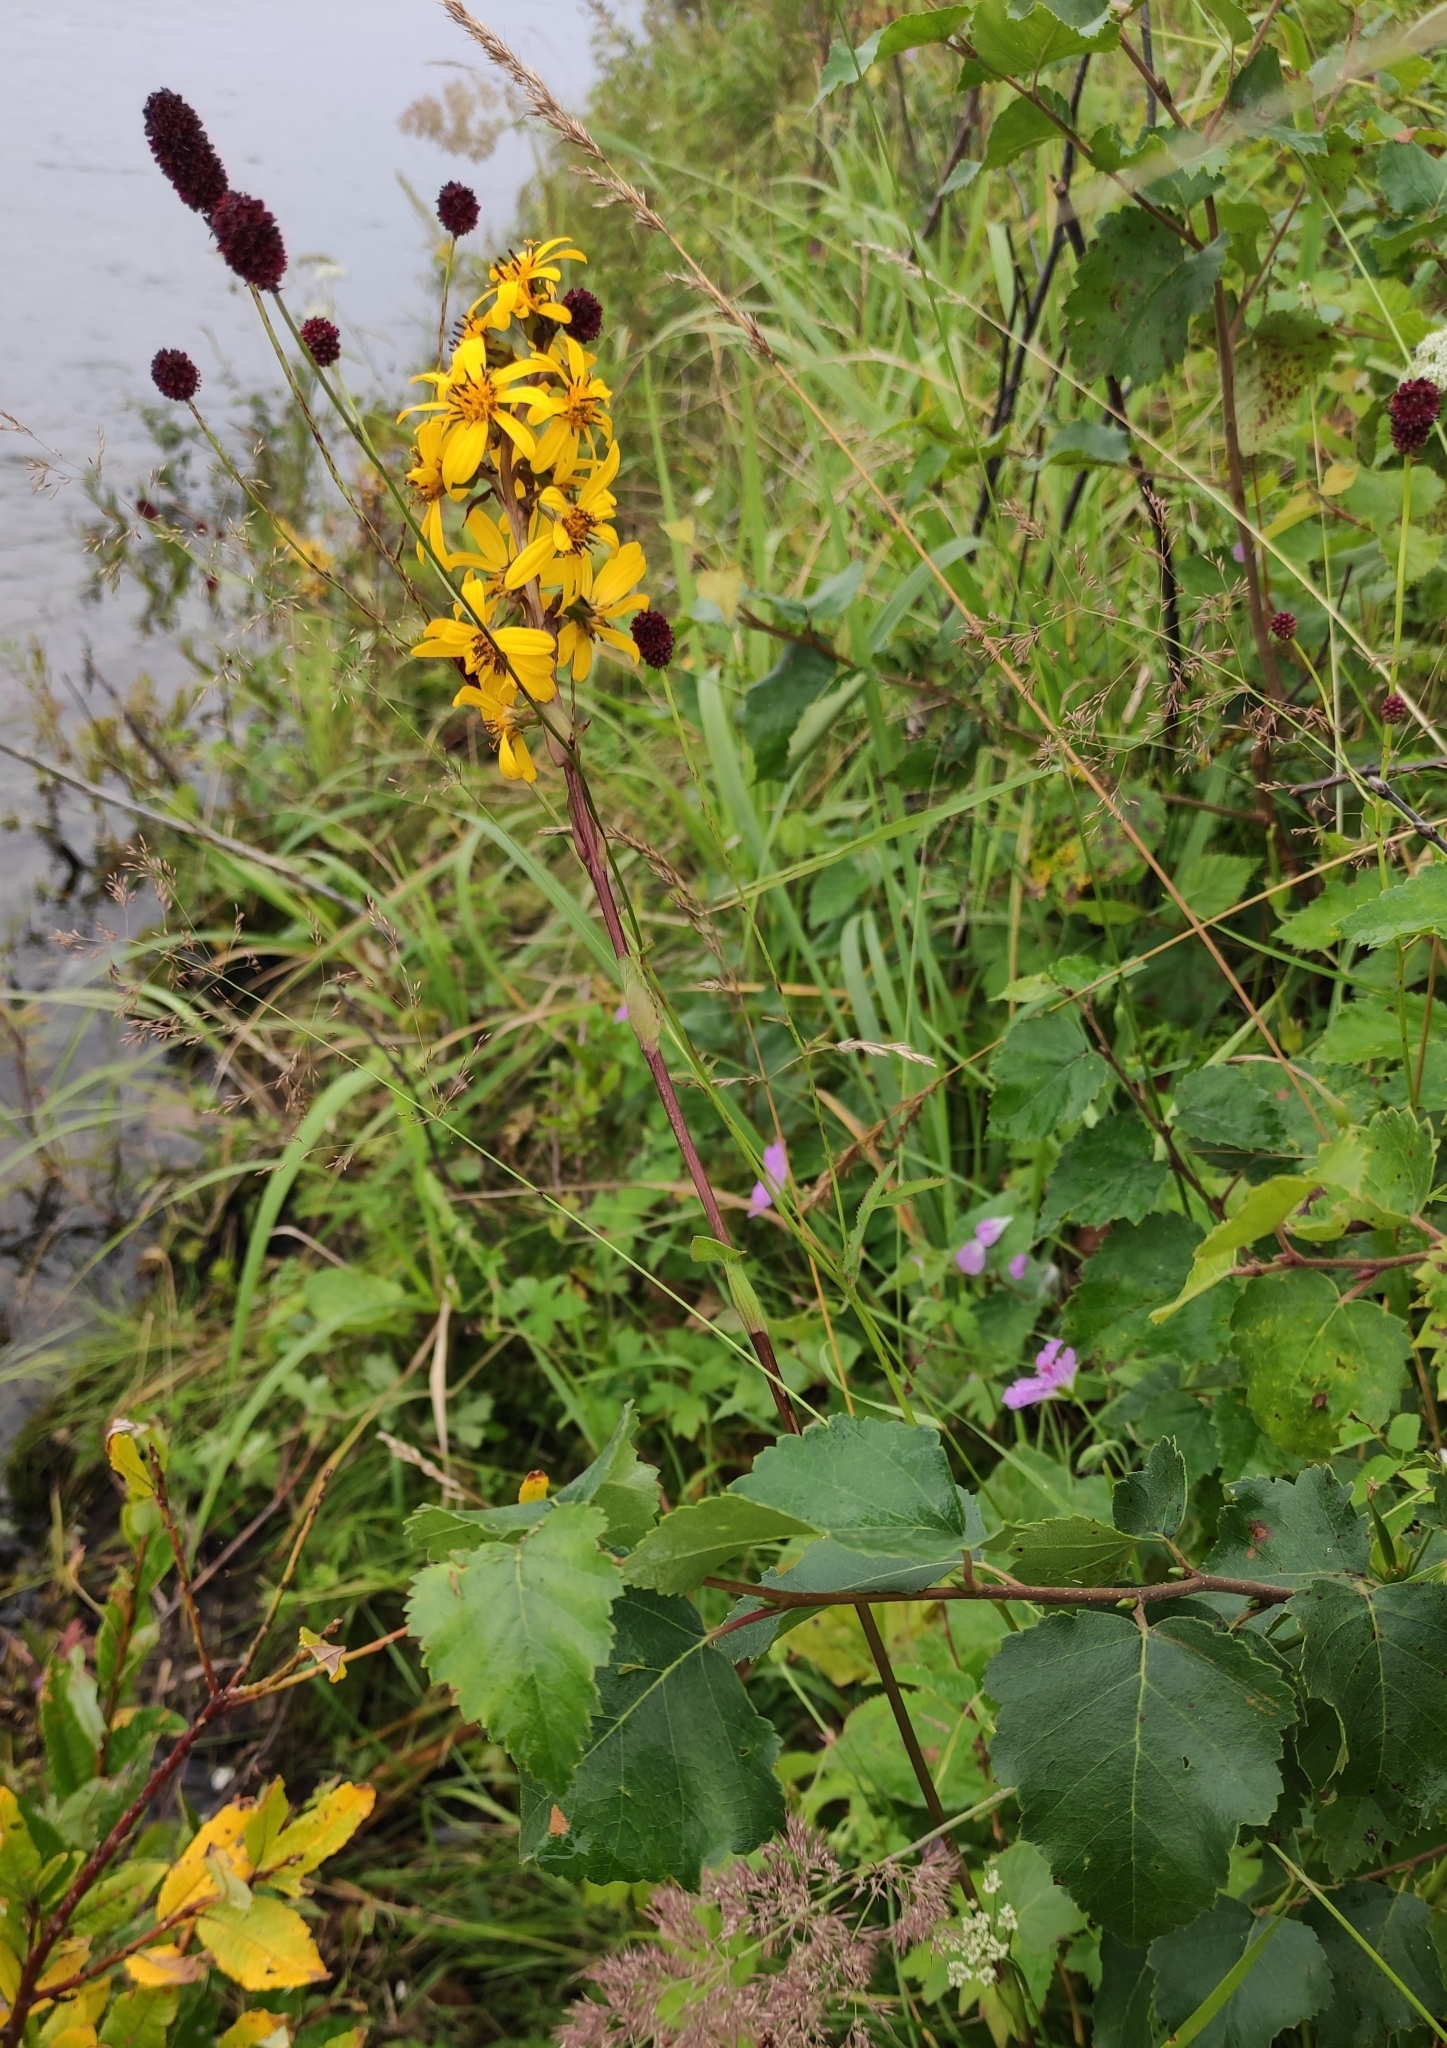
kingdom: Plantae
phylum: Tracheophyta
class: Magnoliopsida
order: Asterales
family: Asteraceae
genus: Ligularia
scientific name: Ligularia sibirica
